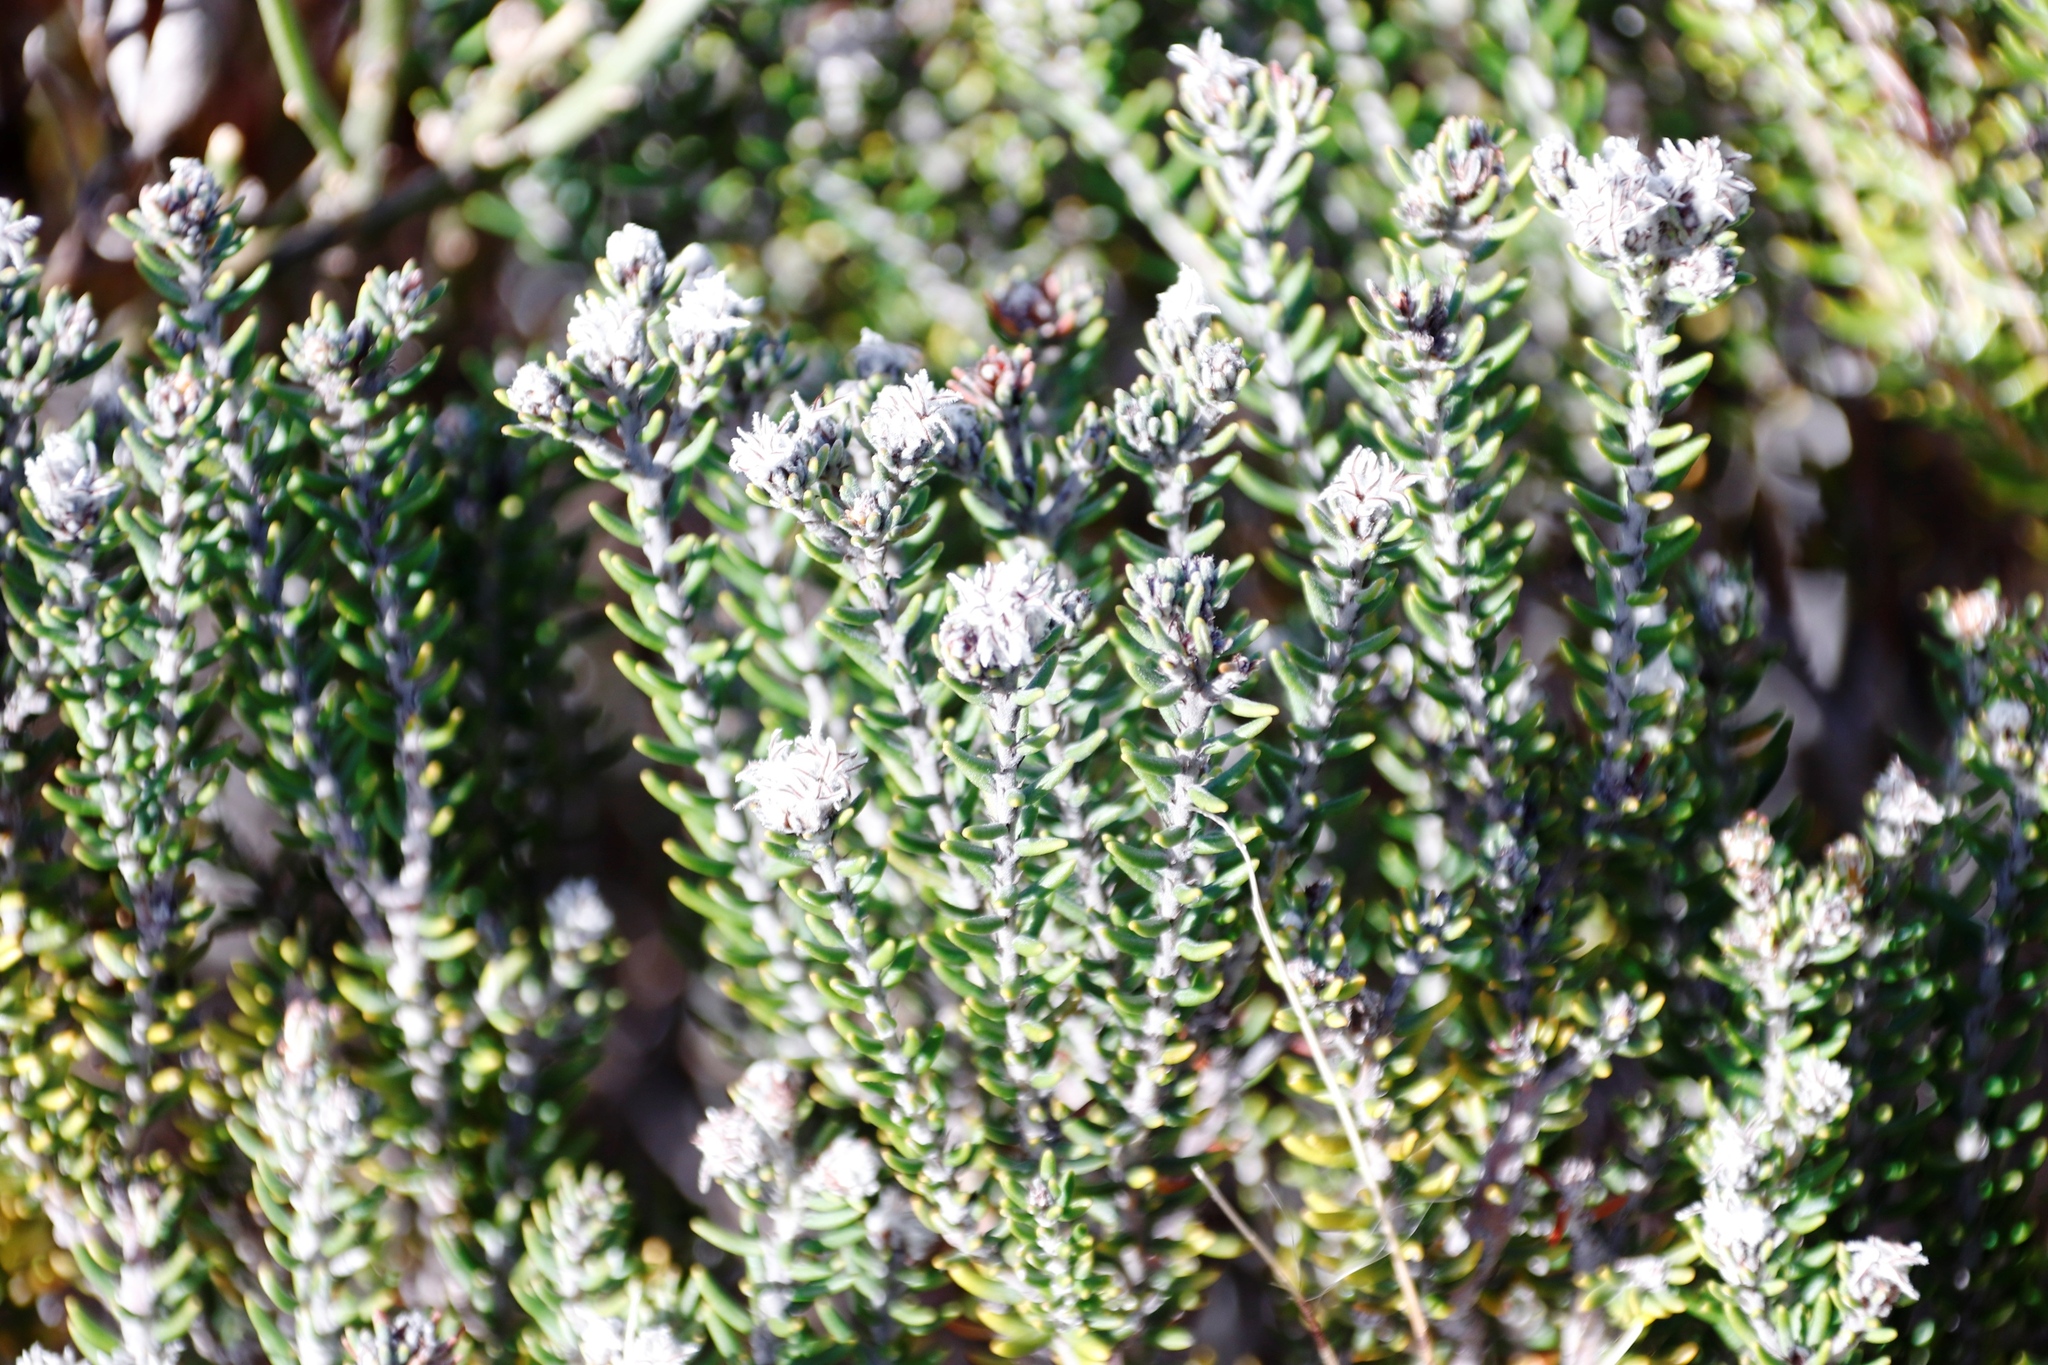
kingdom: Plantae
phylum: Tracheophyta
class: Magnoliopsida
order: Rosales
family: Rhamnaceae
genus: Trichocephalus
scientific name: Trichocephalus stipularis
